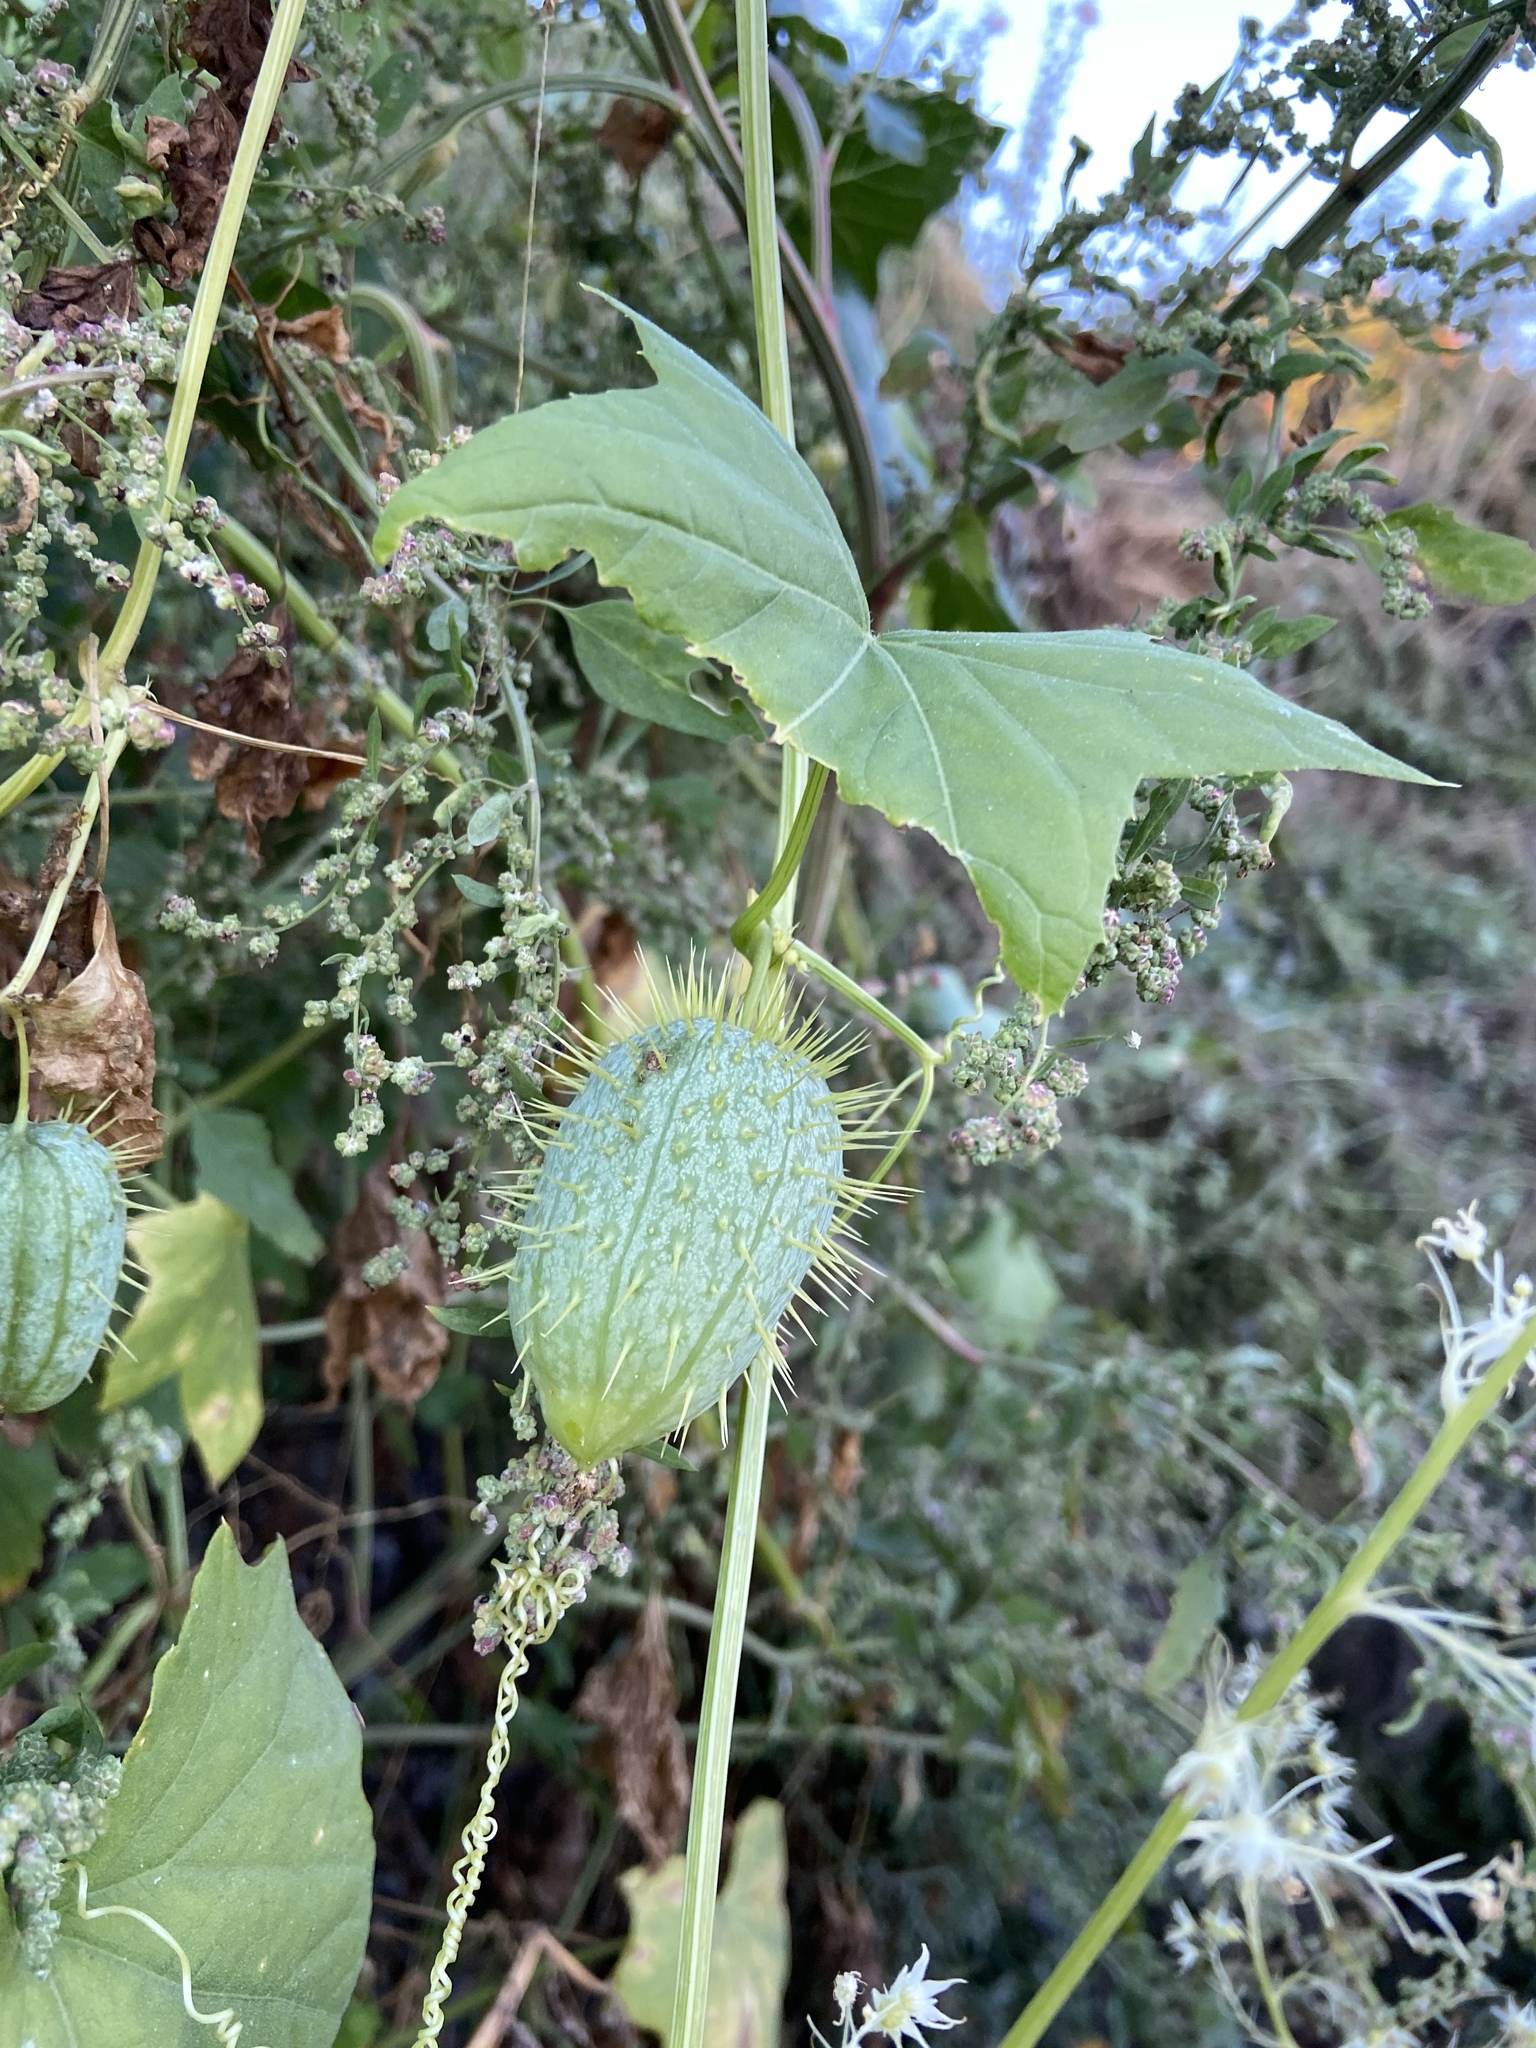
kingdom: Plantae
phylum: Tracheophyta
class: Magnoliopsida
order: Cucurbitales
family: Cucurbitaceae
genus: Echinocystis
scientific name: Echinocystis lobata
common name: Wild cucumber
